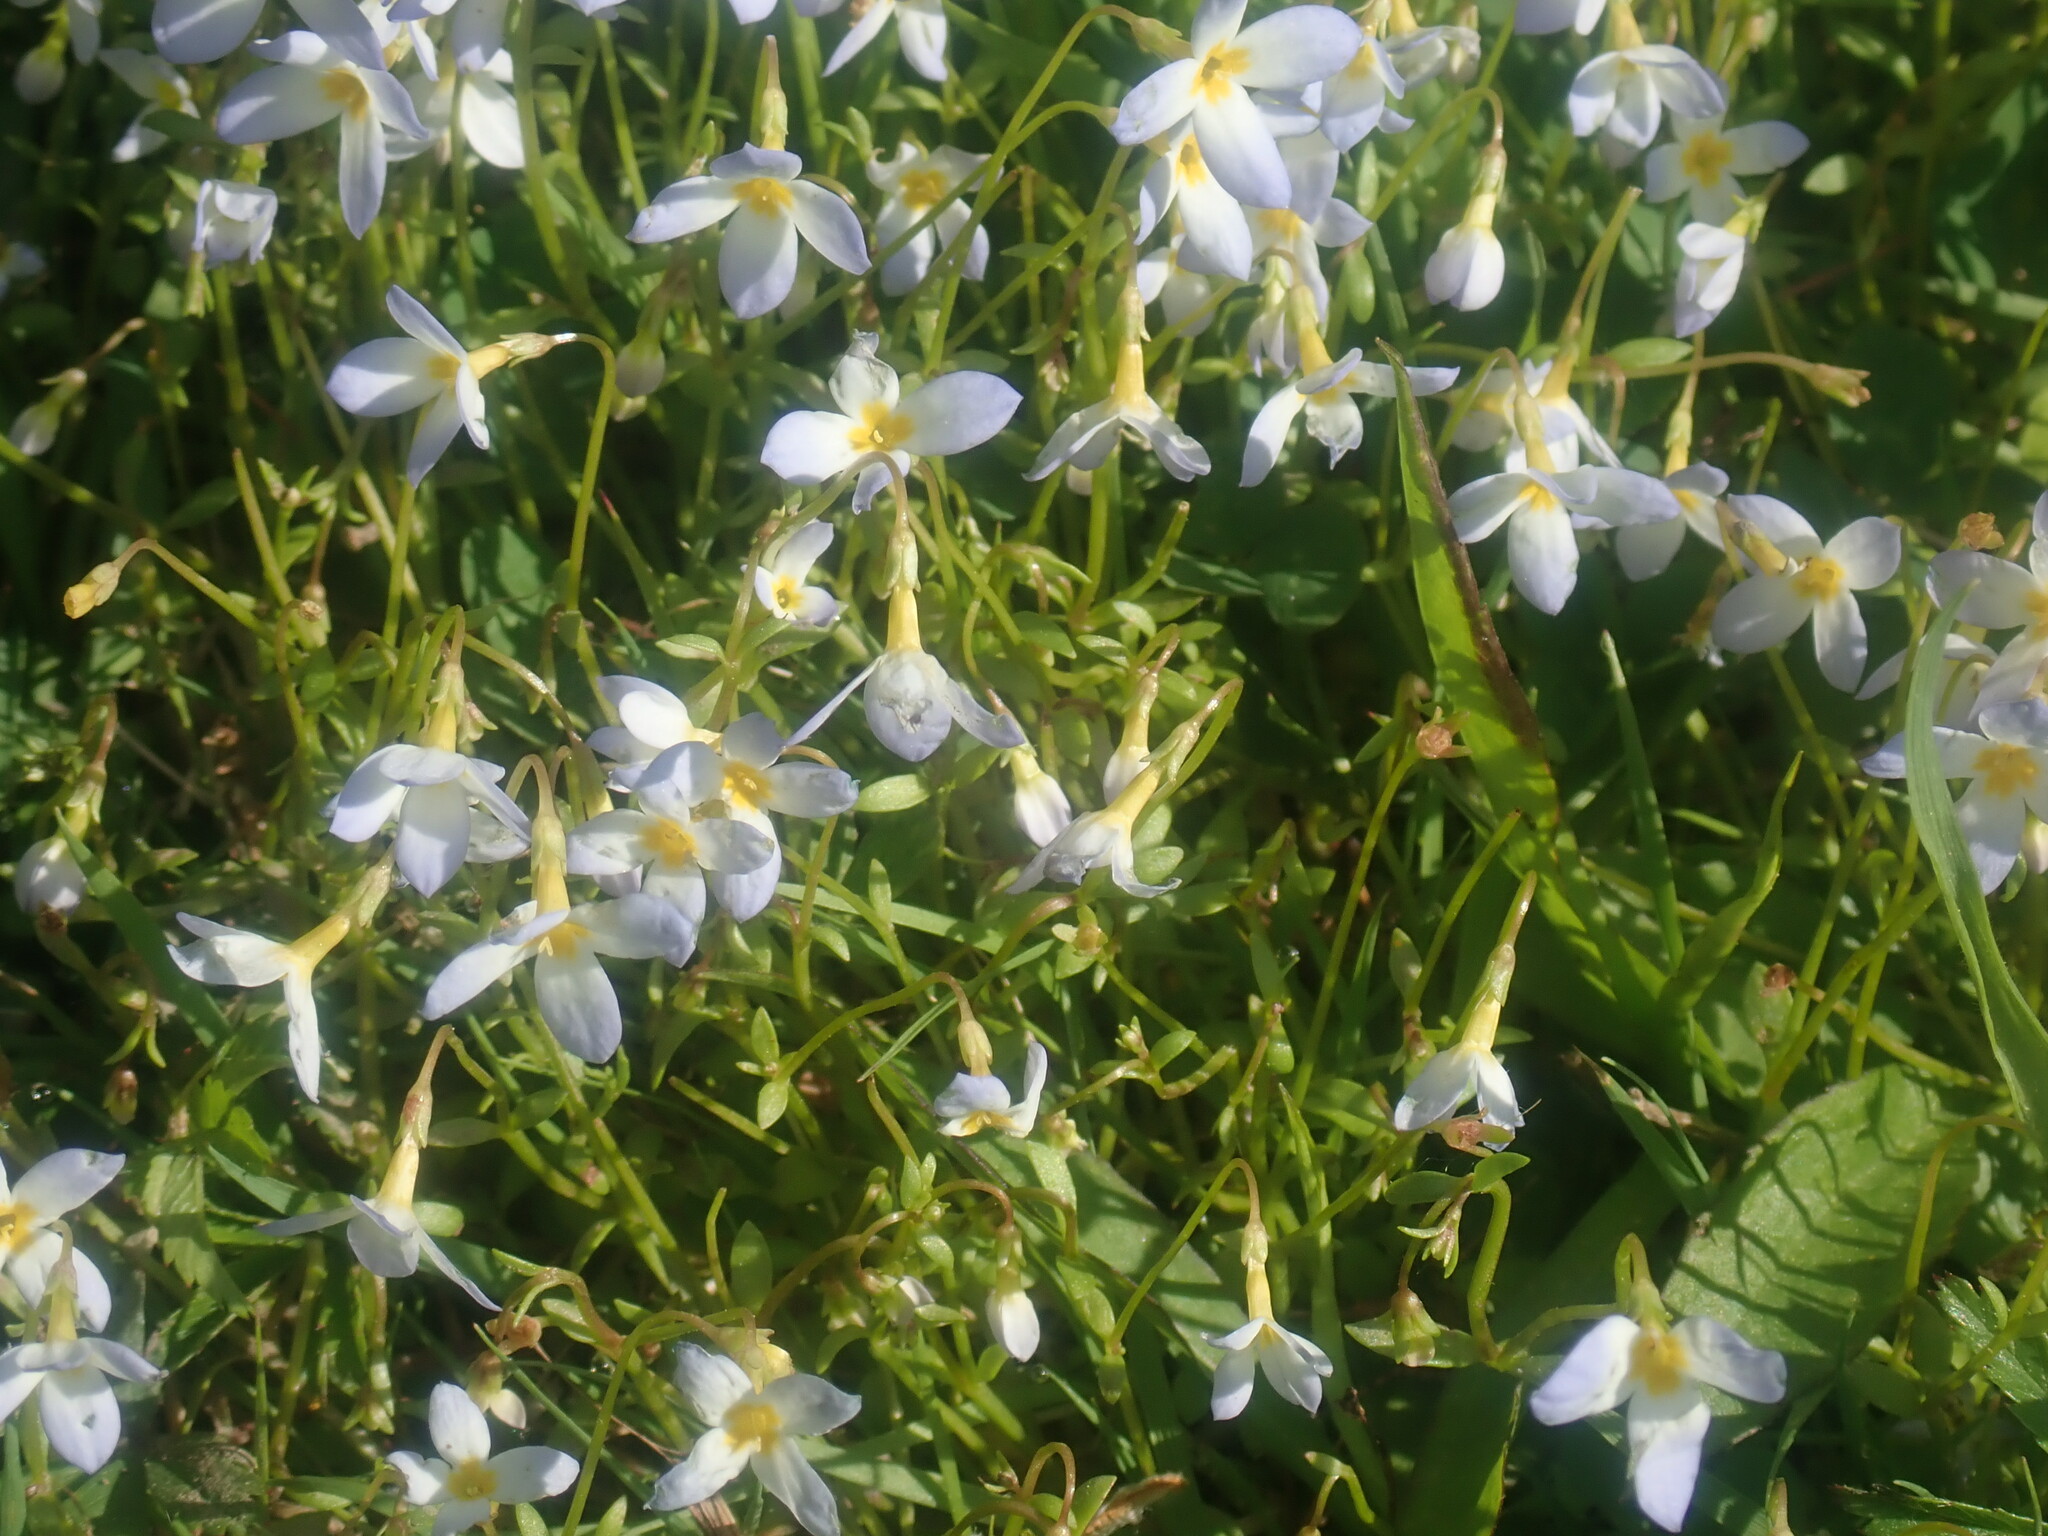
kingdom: Plantae
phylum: Tracheophyta
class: Magnoliopsida
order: Gentianales
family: Rubiaceae
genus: Houstonia
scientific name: Houstonia caerulea
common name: Bluets
